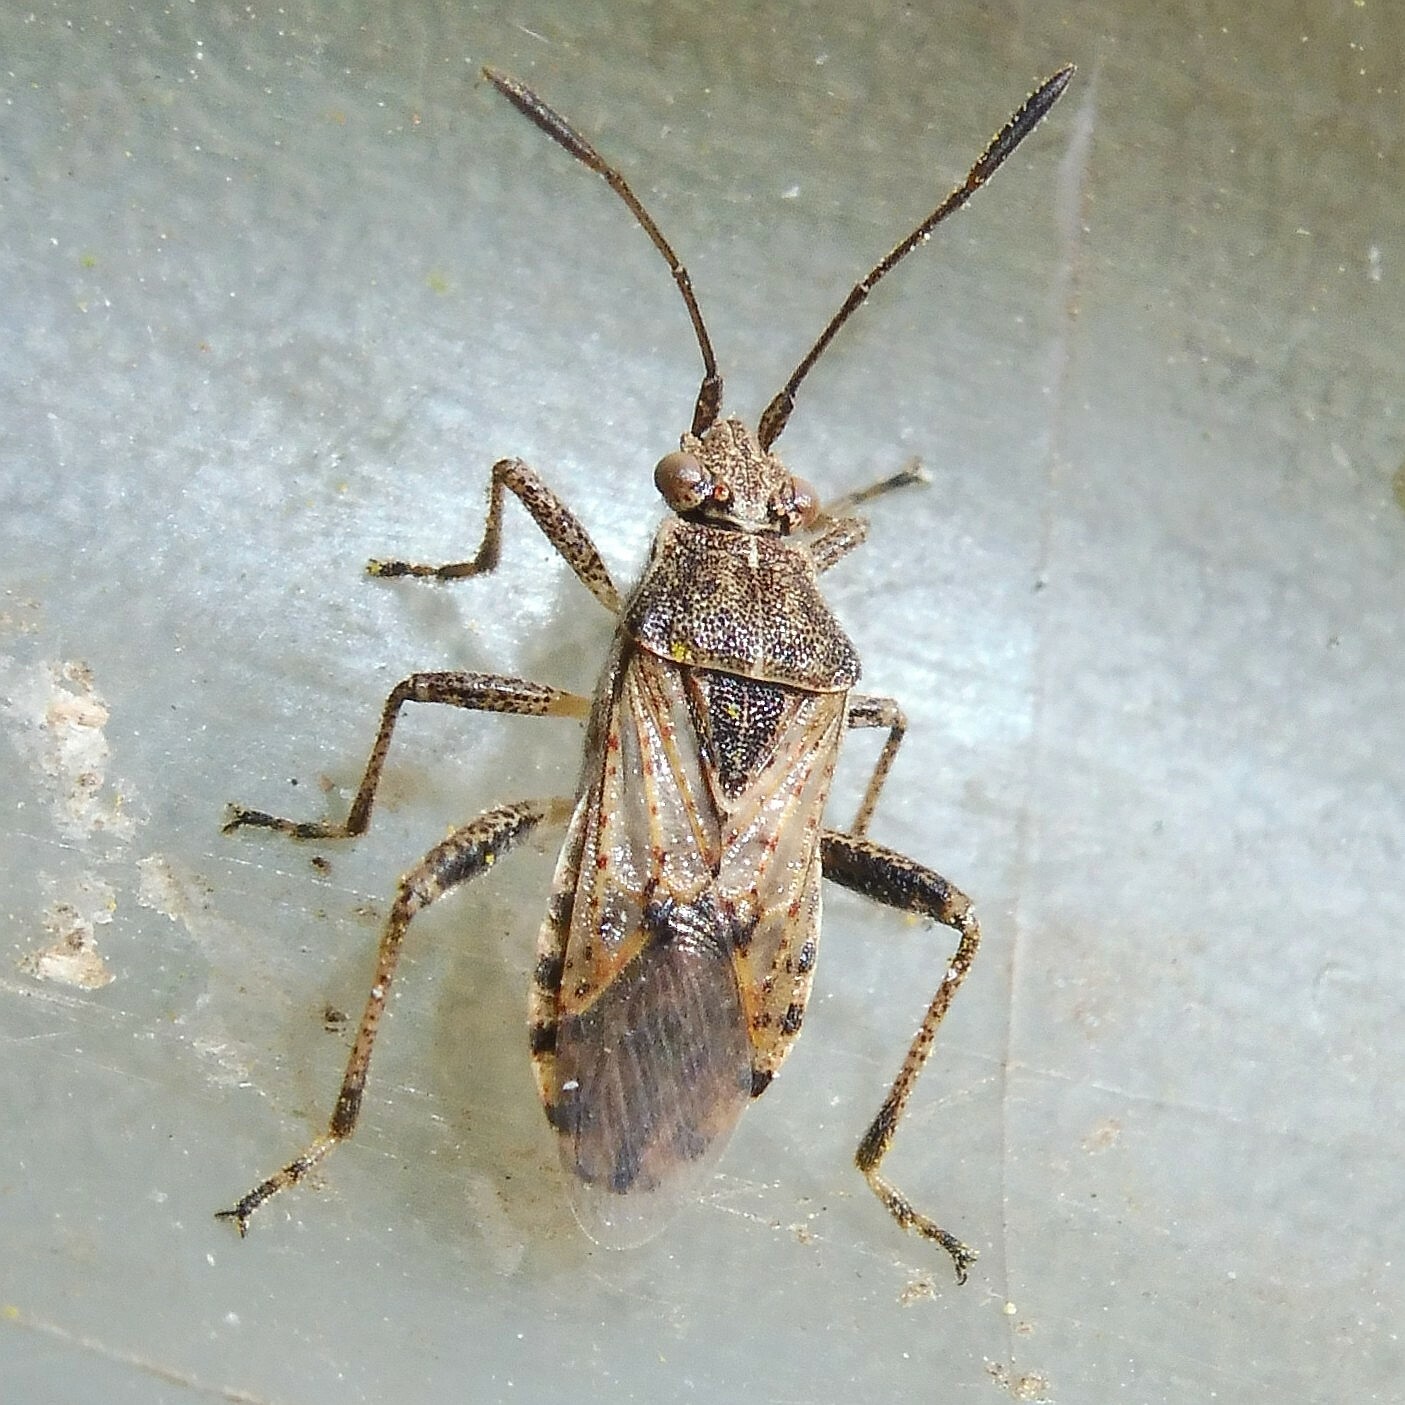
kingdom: Animalia
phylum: Arthropoda
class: Insecta
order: Hemiptera
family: Rhopalidae
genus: Stictopleurus
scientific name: Stictopleurus punctatonervosus
